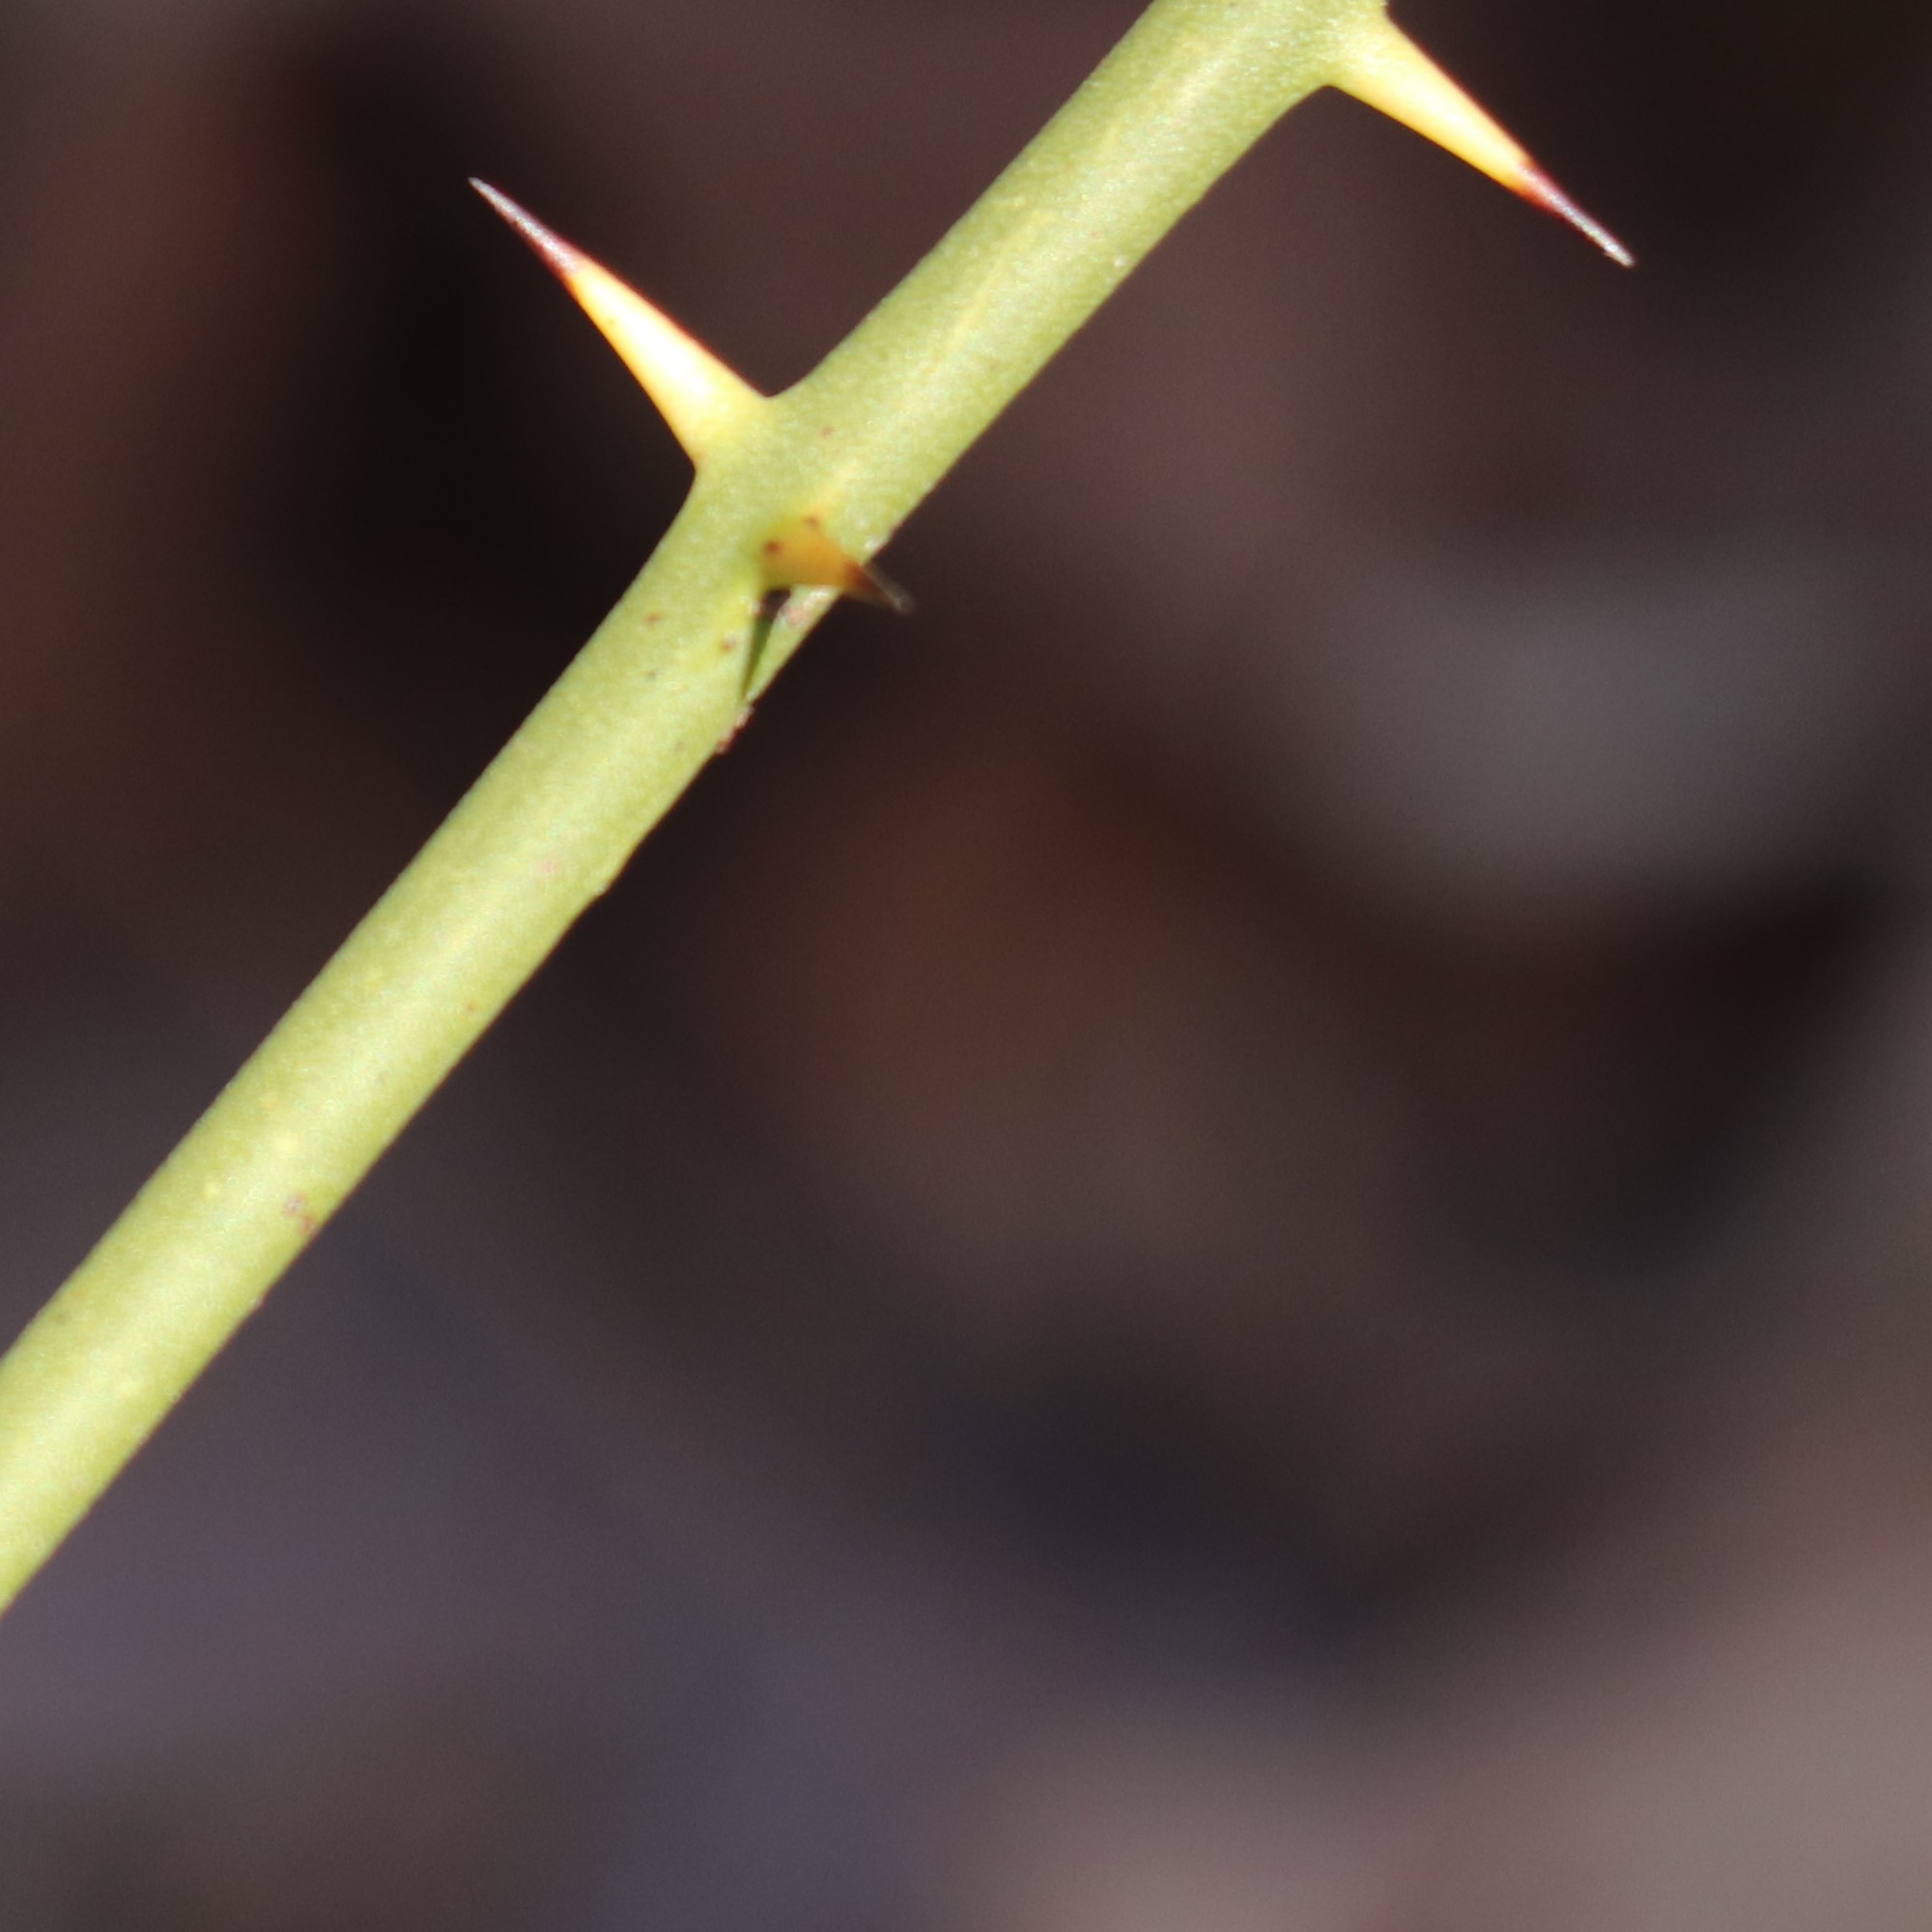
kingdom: Plantae
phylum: Tracheophyta
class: Liliopsida
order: Liliales
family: Smilacaceae
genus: Smilax
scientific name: Smilax rotundifolia
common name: Bullbriar
